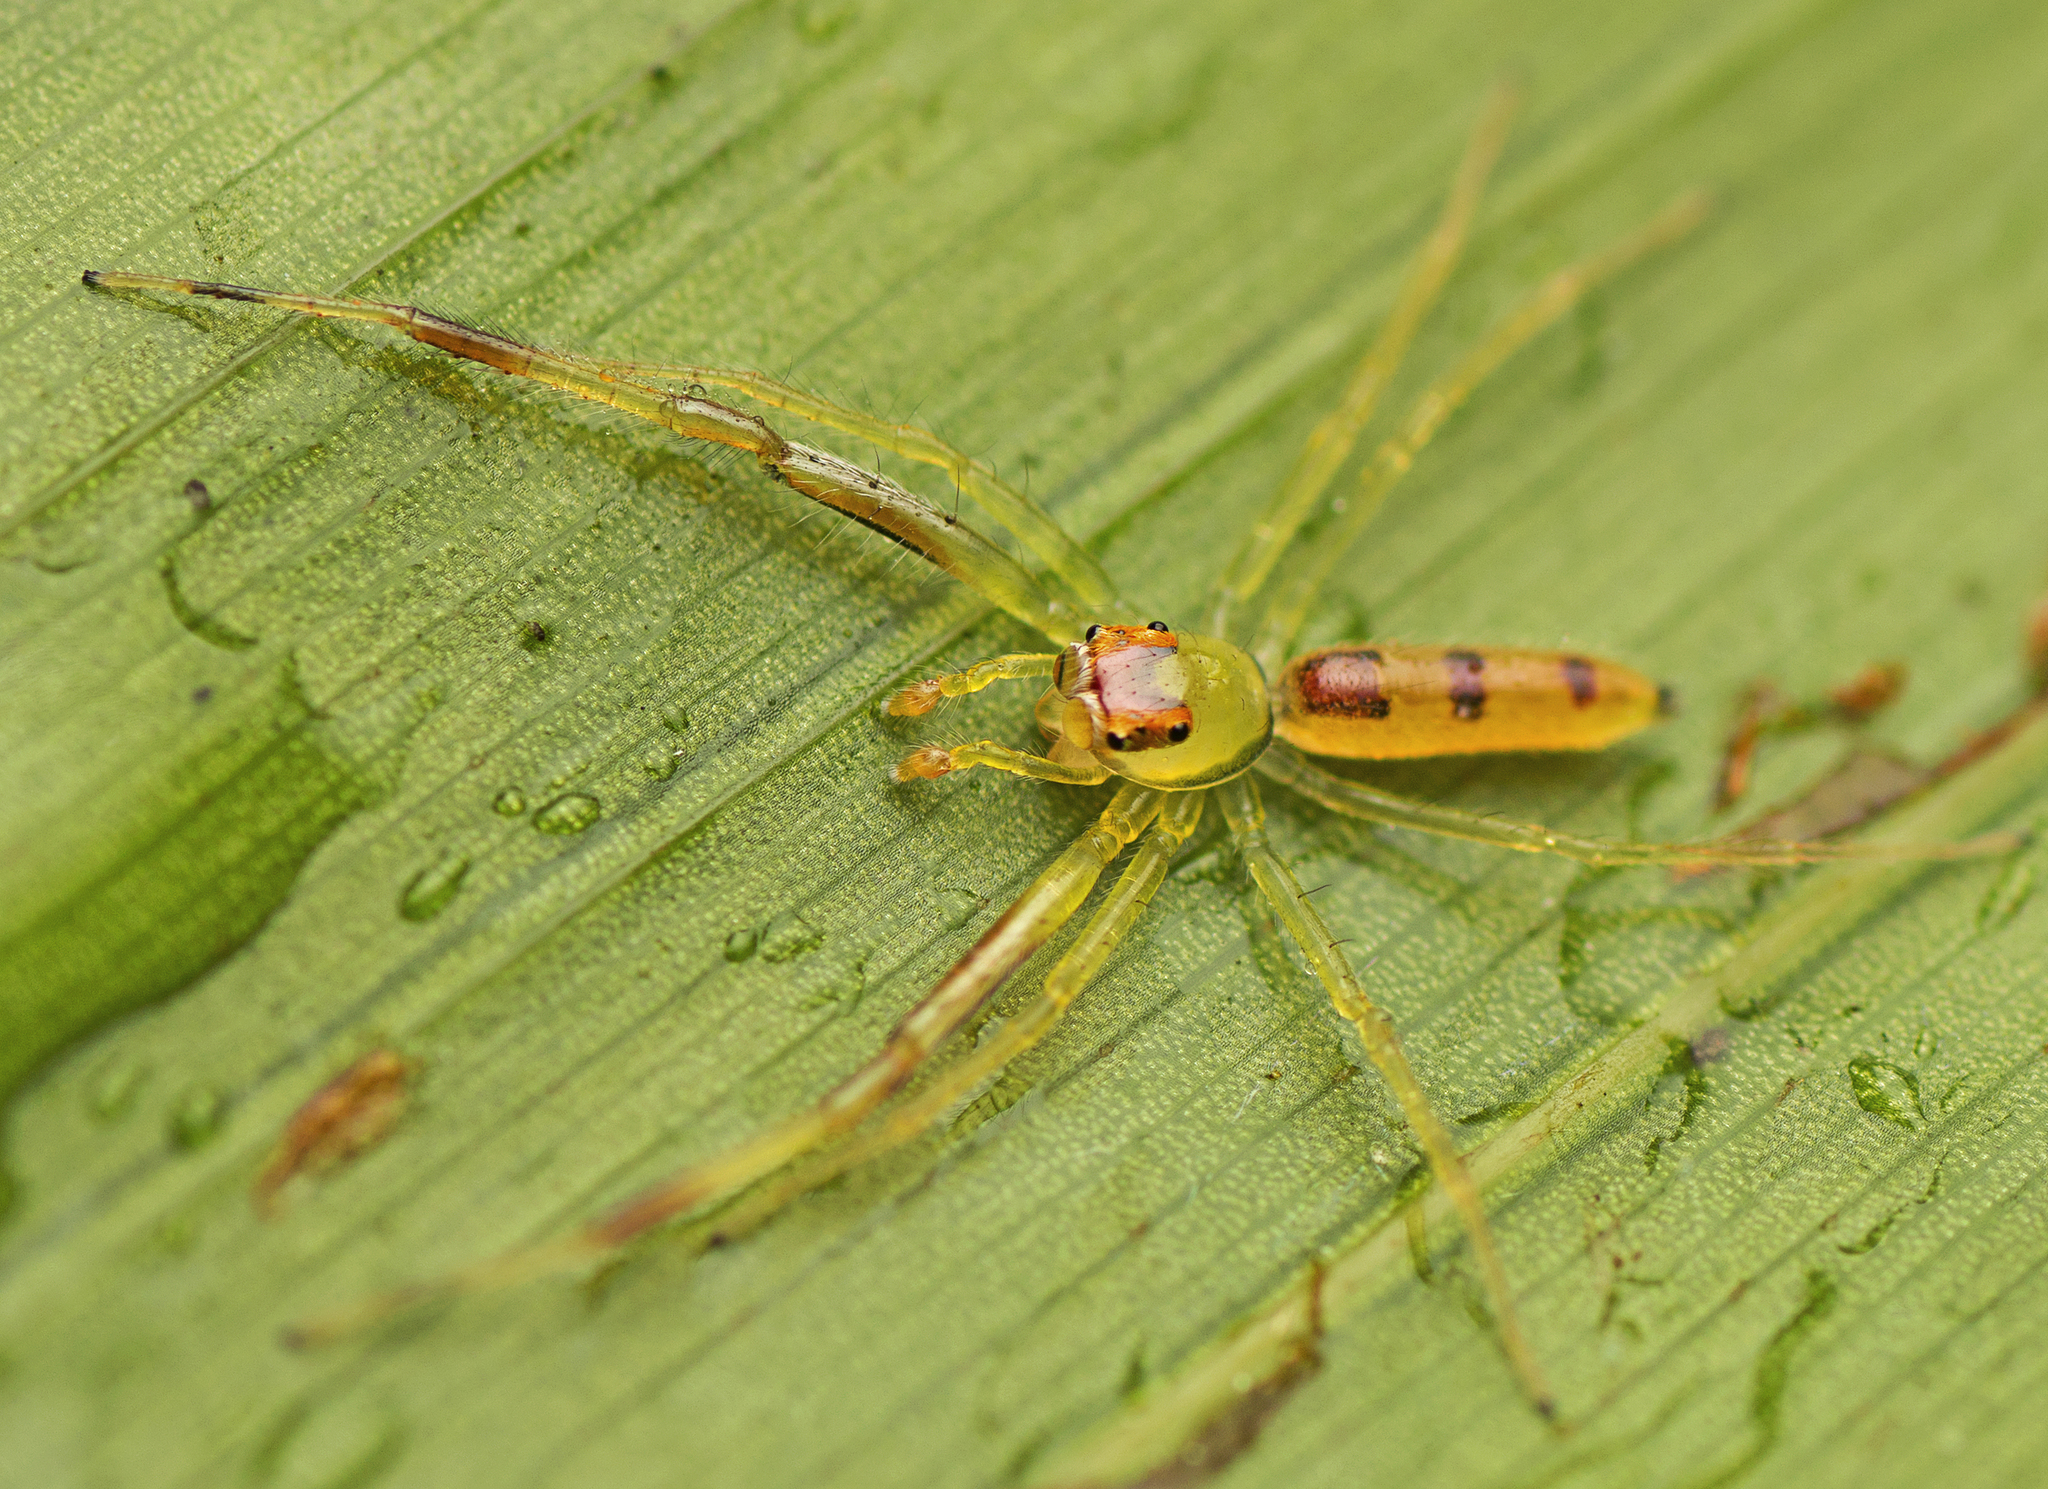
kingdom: Animalia
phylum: Arthropoda
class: Arachnida
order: Araneae
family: Salticidae
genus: Astilodes
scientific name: Astilodes mariae
